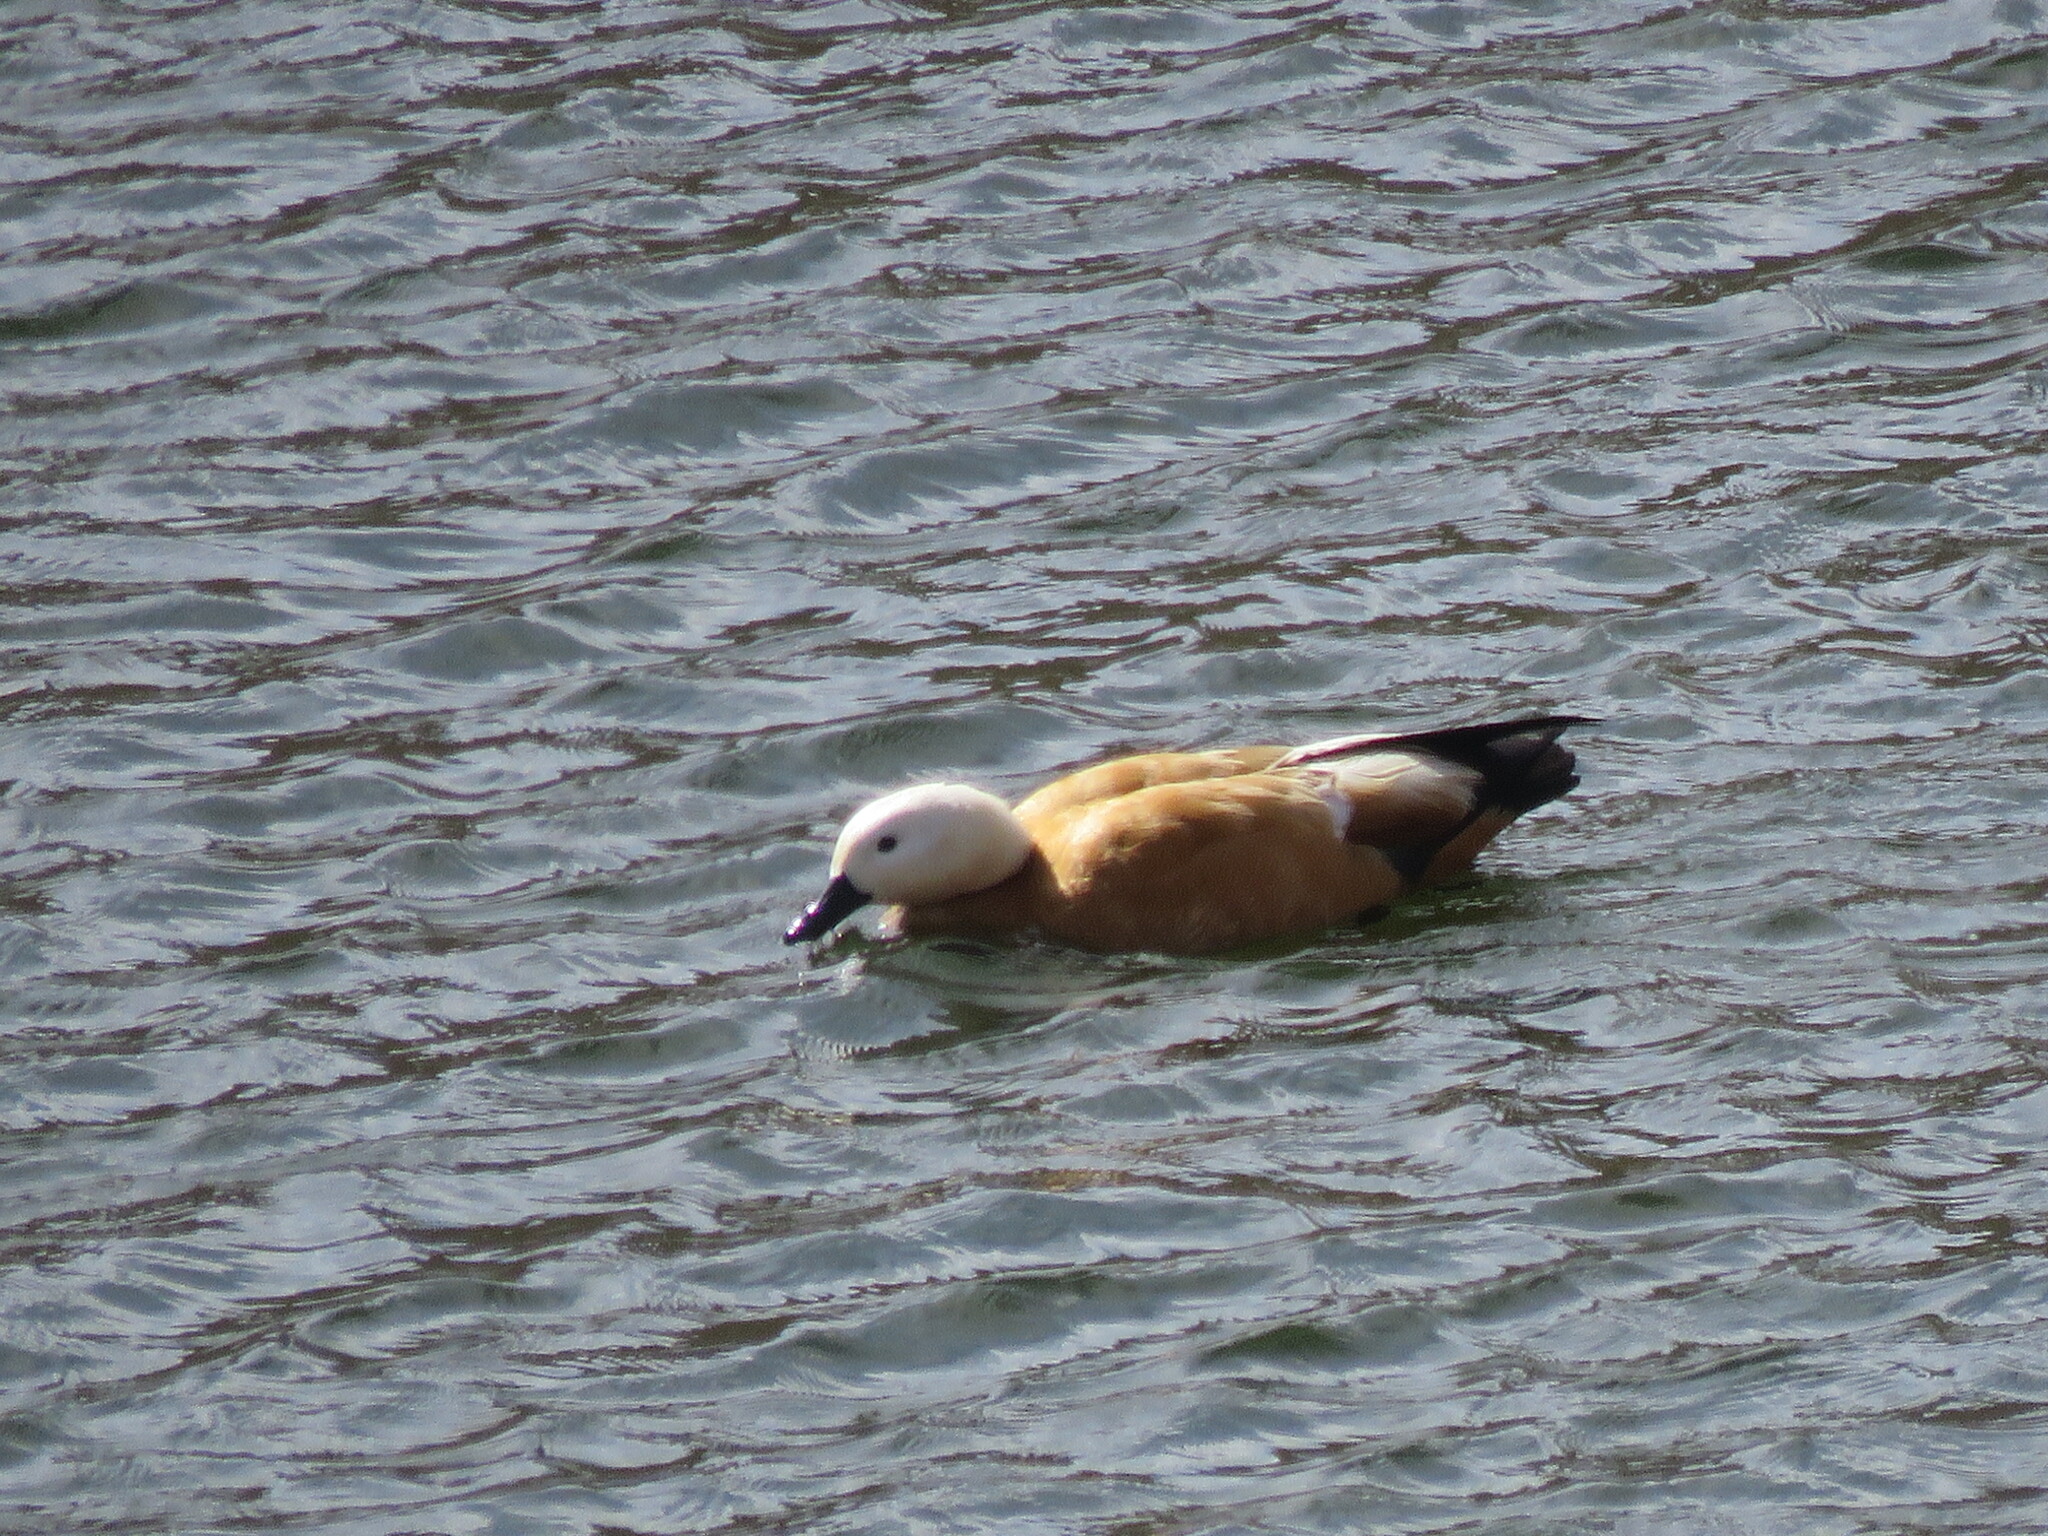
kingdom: Animalia
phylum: Chordata
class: Aves
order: Anseriformes
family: Anatidae
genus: Tadorna
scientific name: Tadorna ferruginea
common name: Ruddy shelduck
